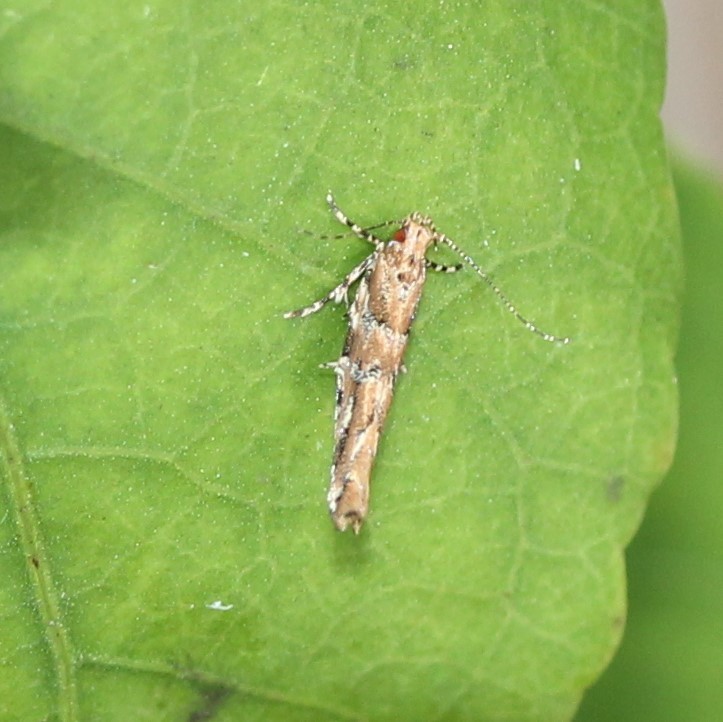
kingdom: Animalia
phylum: Arthropoda
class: Insecta
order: Lepidoptera
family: Cosmopterigidae
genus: Anatrachyntis
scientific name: Anatrachyntis badia
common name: Moth
